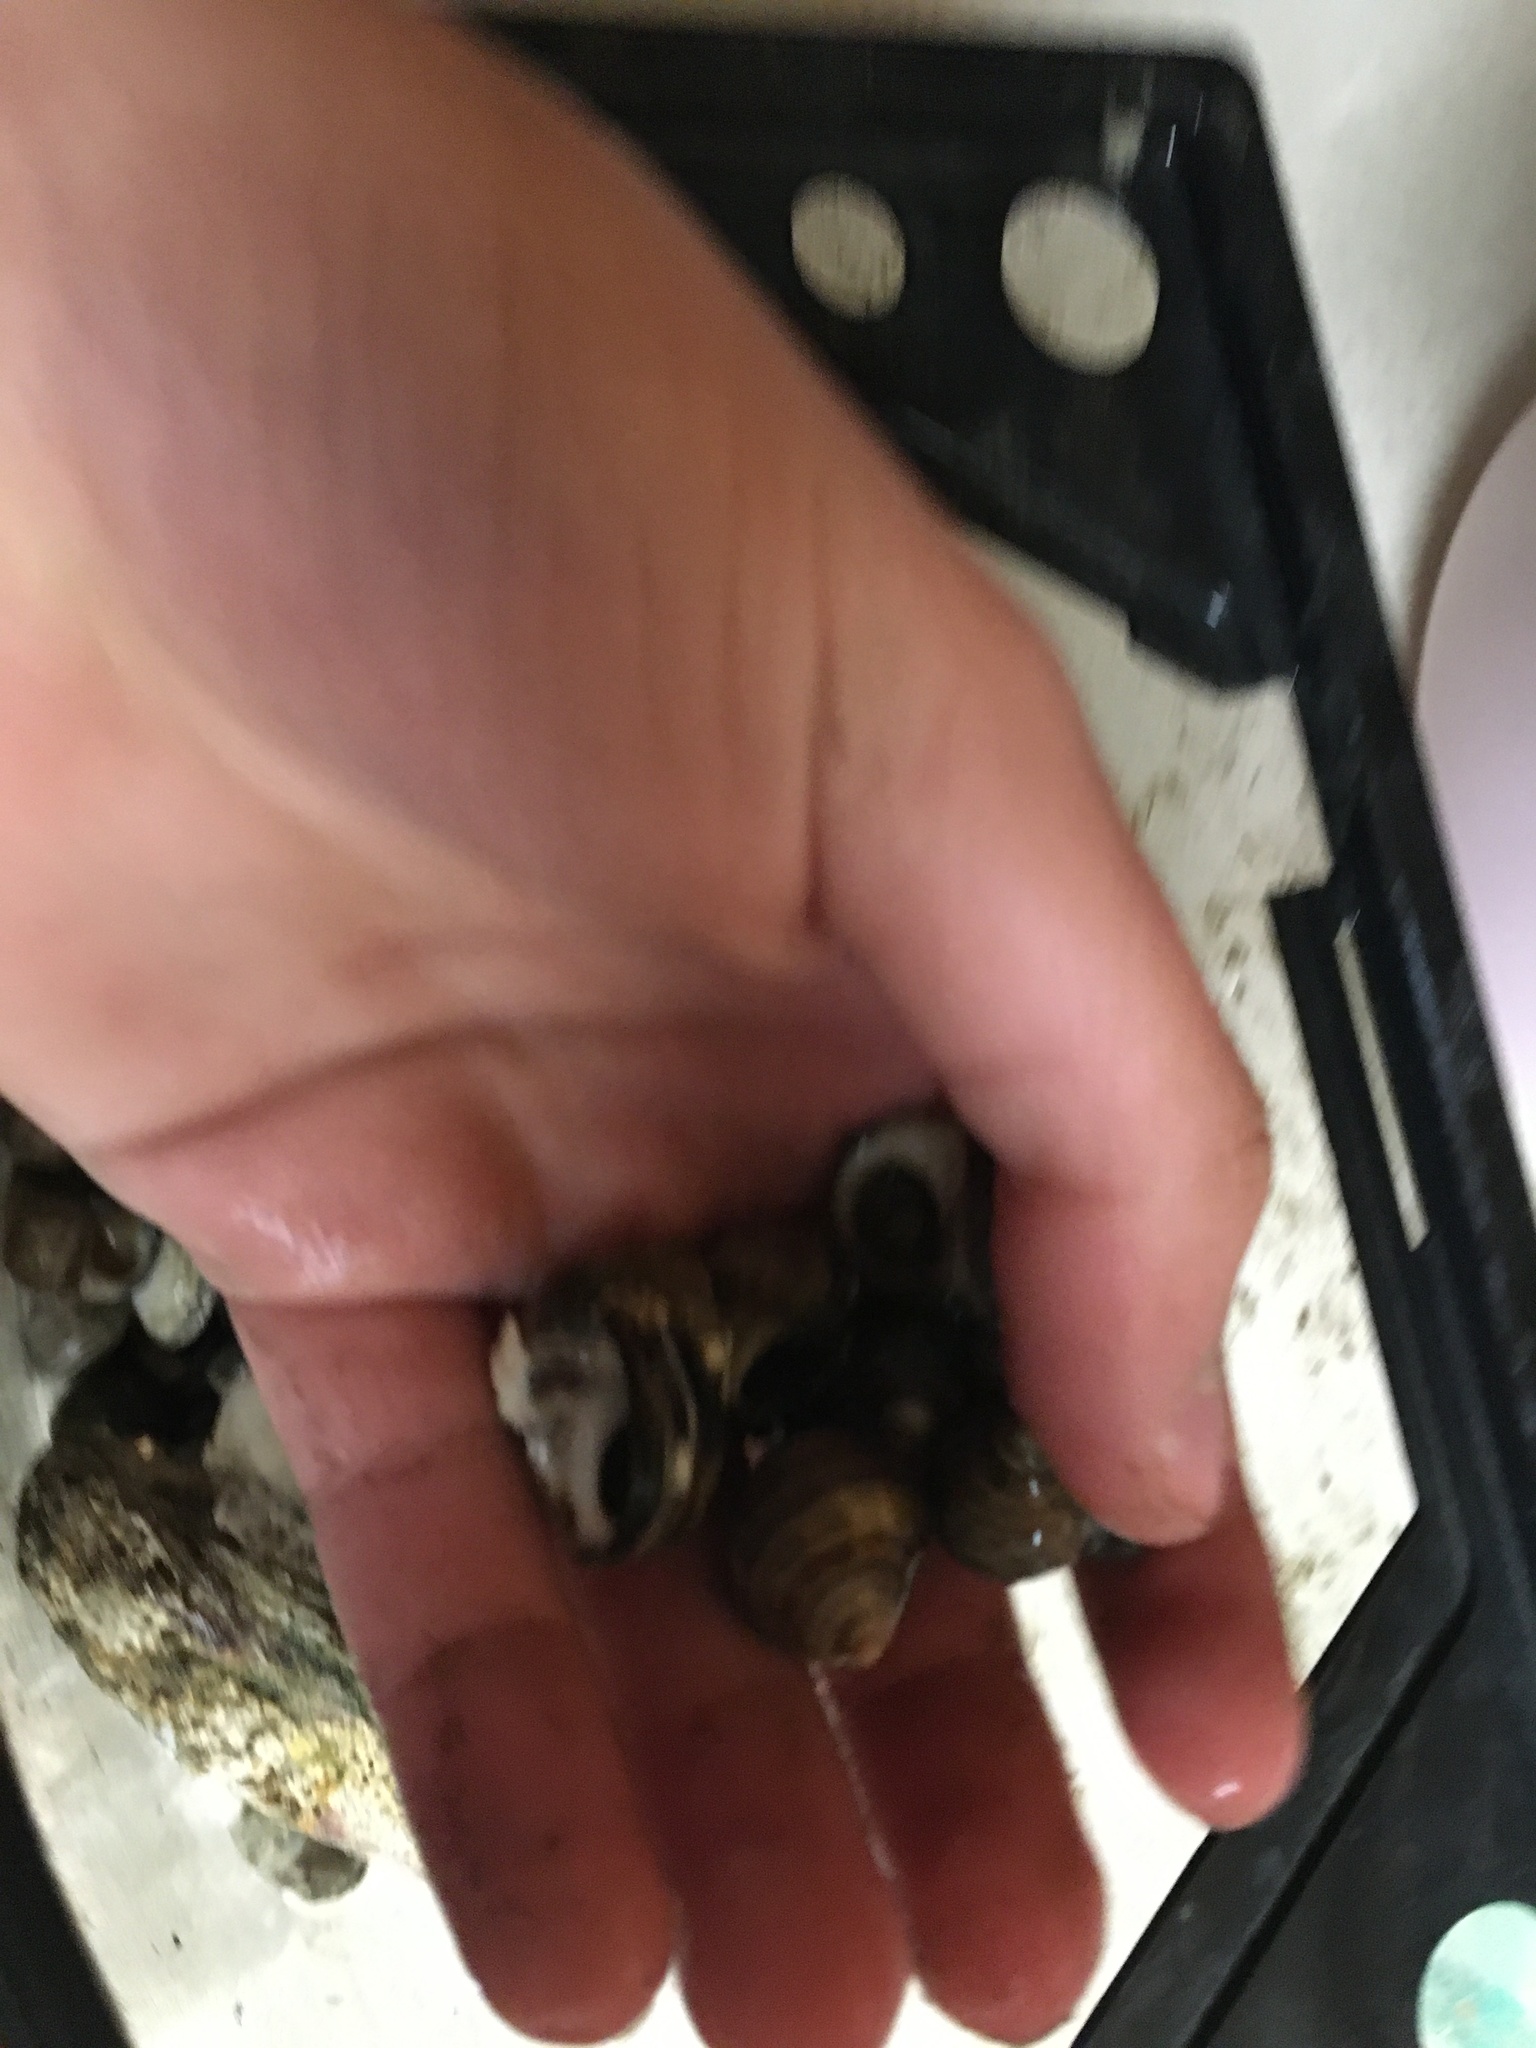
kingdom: Animalia
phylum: Mollusca
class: Gastropoda
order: Littorinimorpha
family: Littorinidae
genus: Littorina
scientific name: Littorina littorea
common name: Common periwinkle
